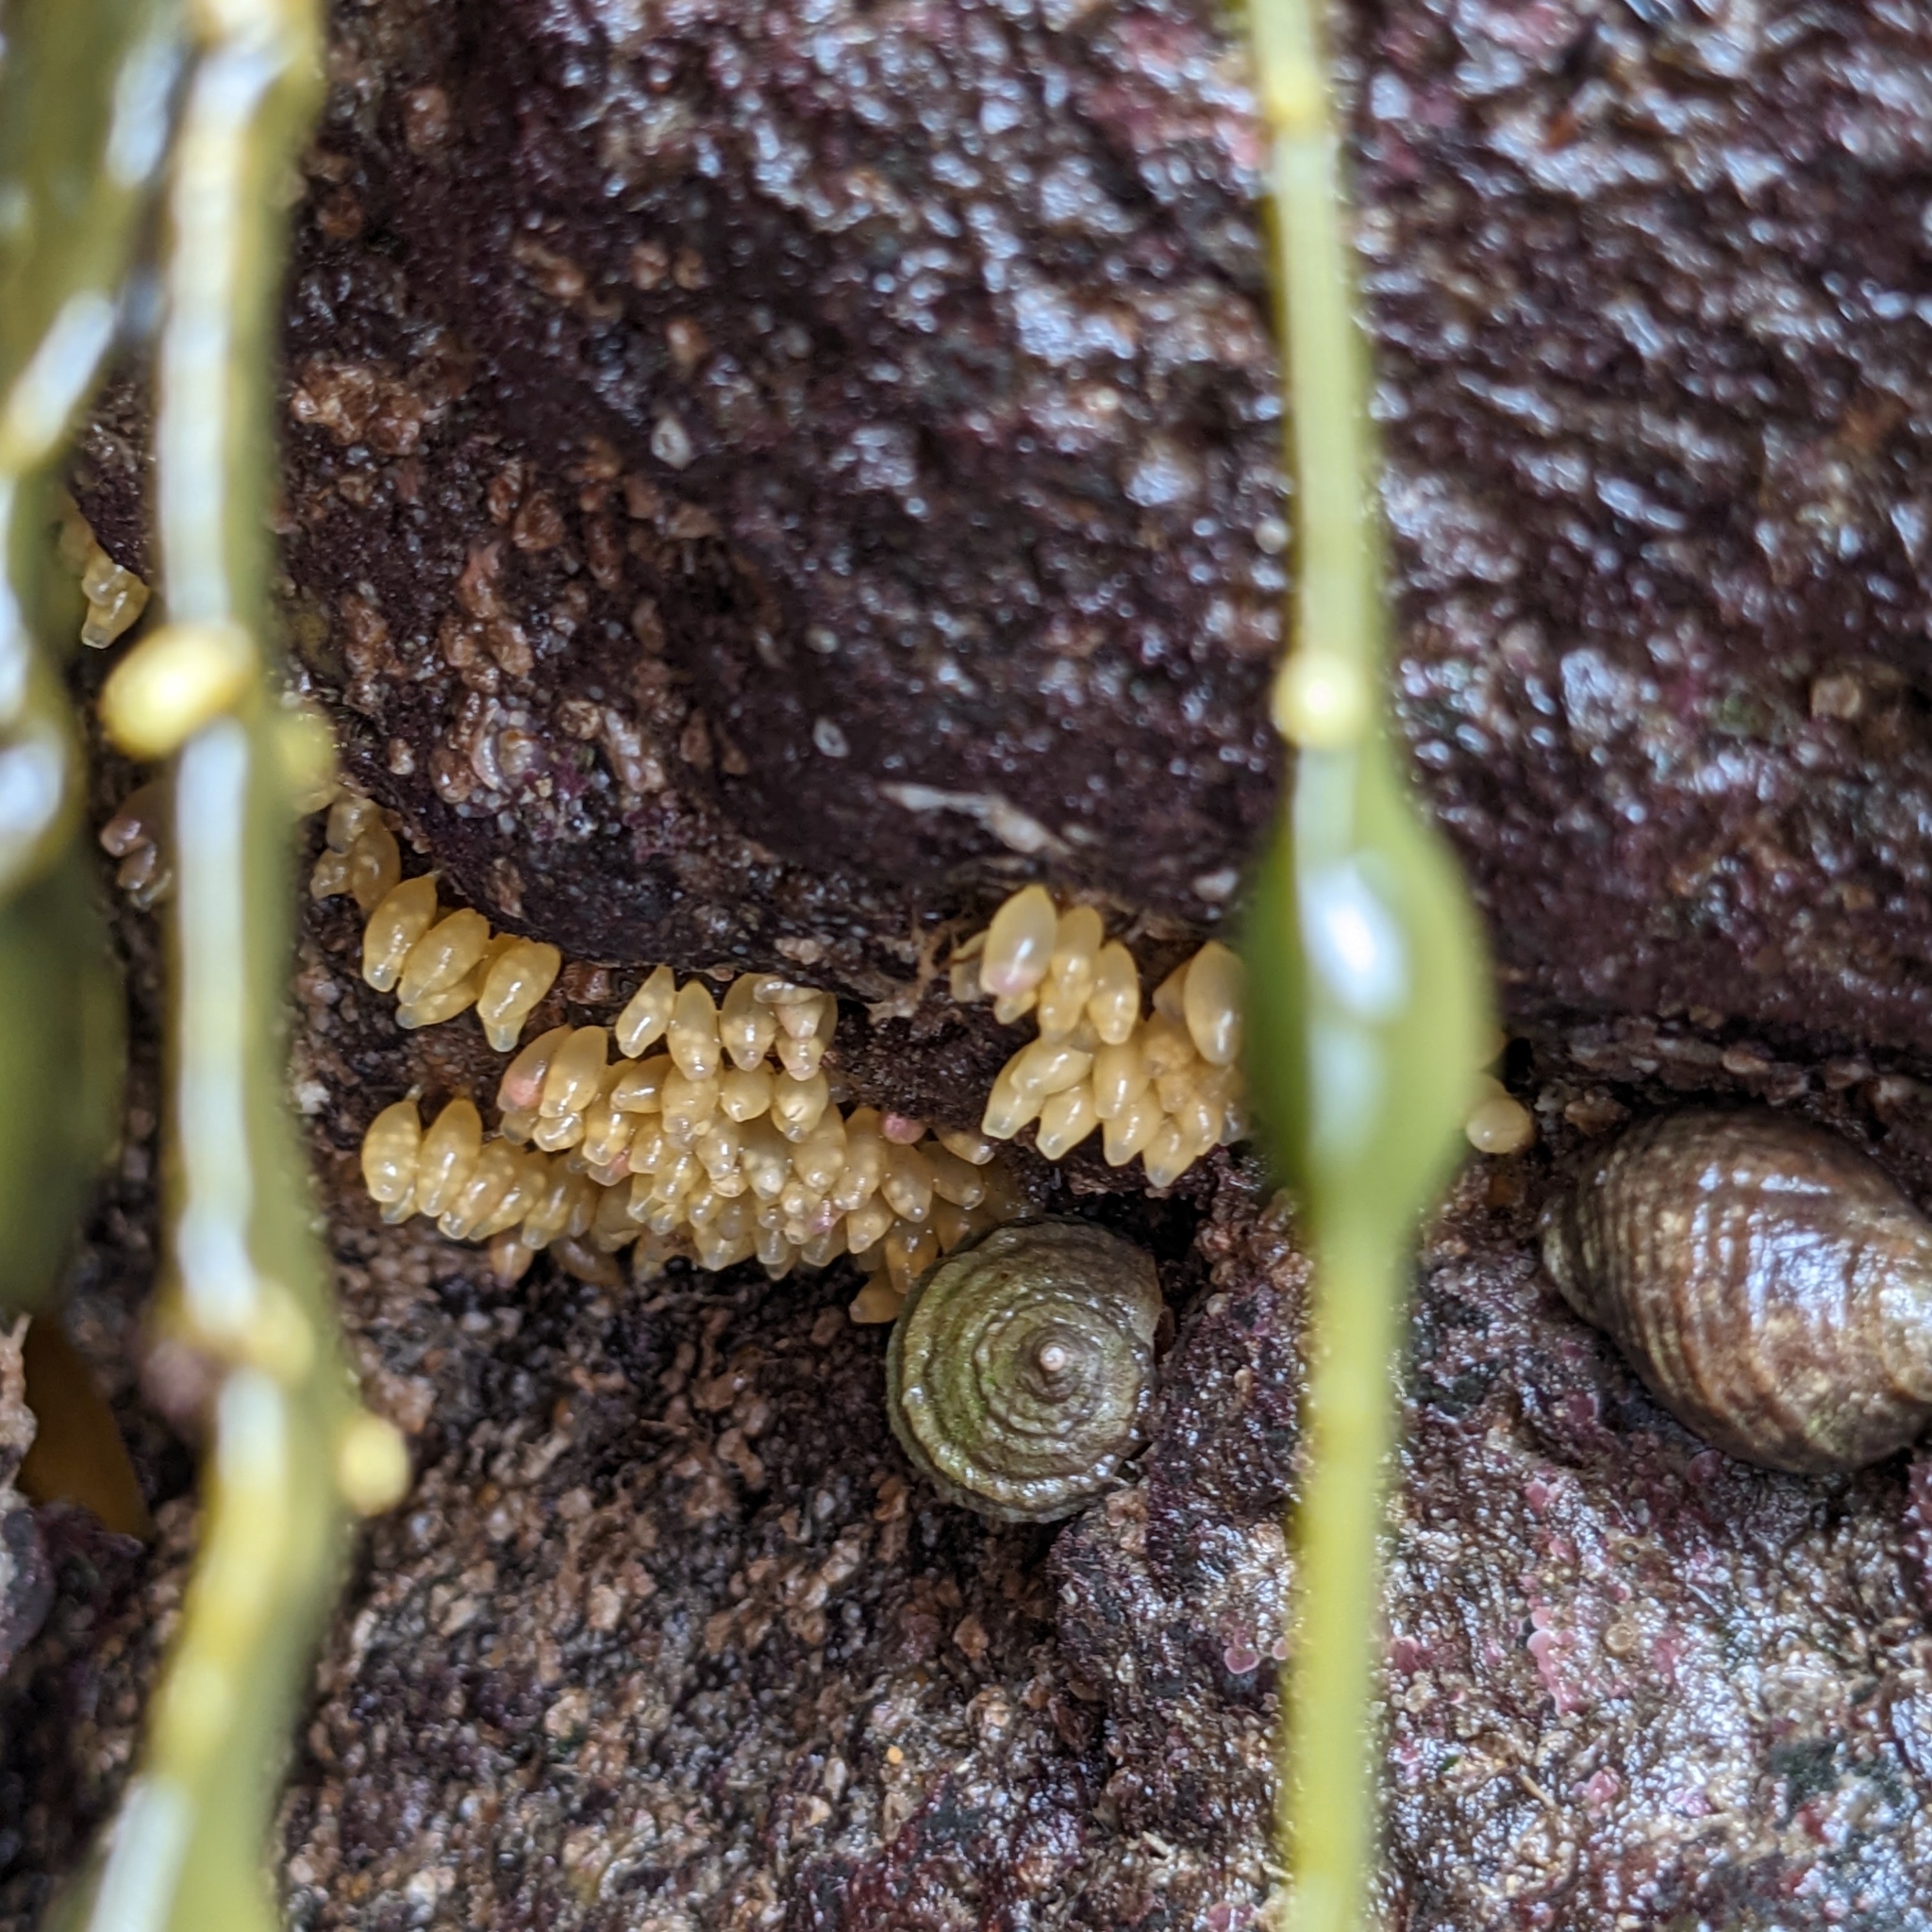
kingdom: Animalia
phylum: Mollusca
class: Gastropoda
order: Neogastropoda
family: Muricidae
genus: Nucella
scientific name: Nucella lapillus
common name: Dog whelk
